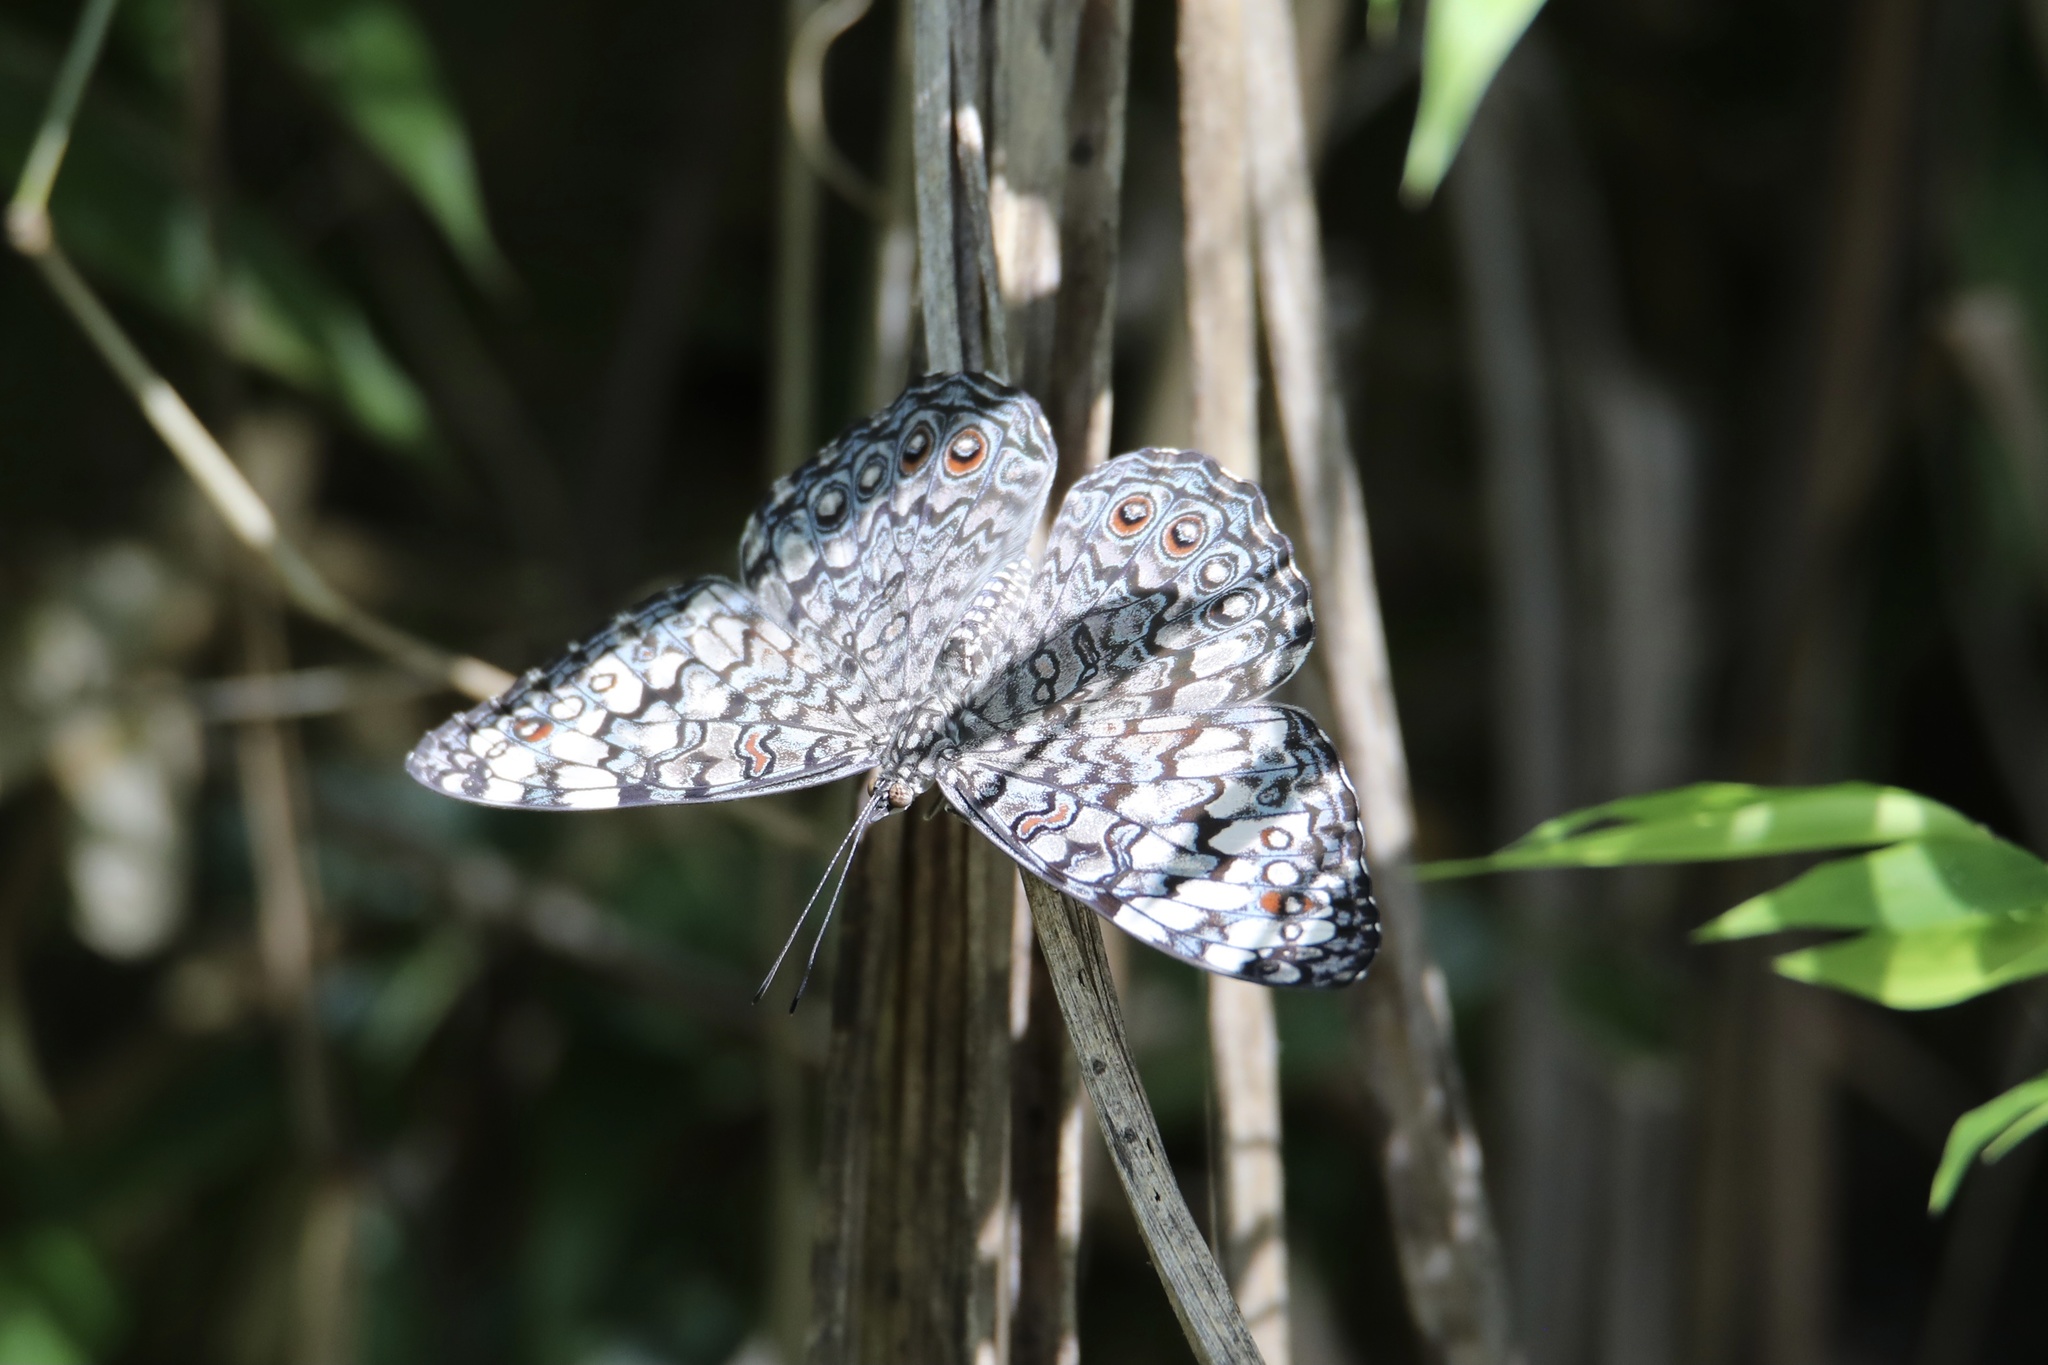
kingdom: Animalia
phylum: Arthropoda
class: Insecta
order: Lepidoptera
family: Nymphalidae
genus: Hamadryas
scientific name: Hamadryas februa
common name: Gray cracker
